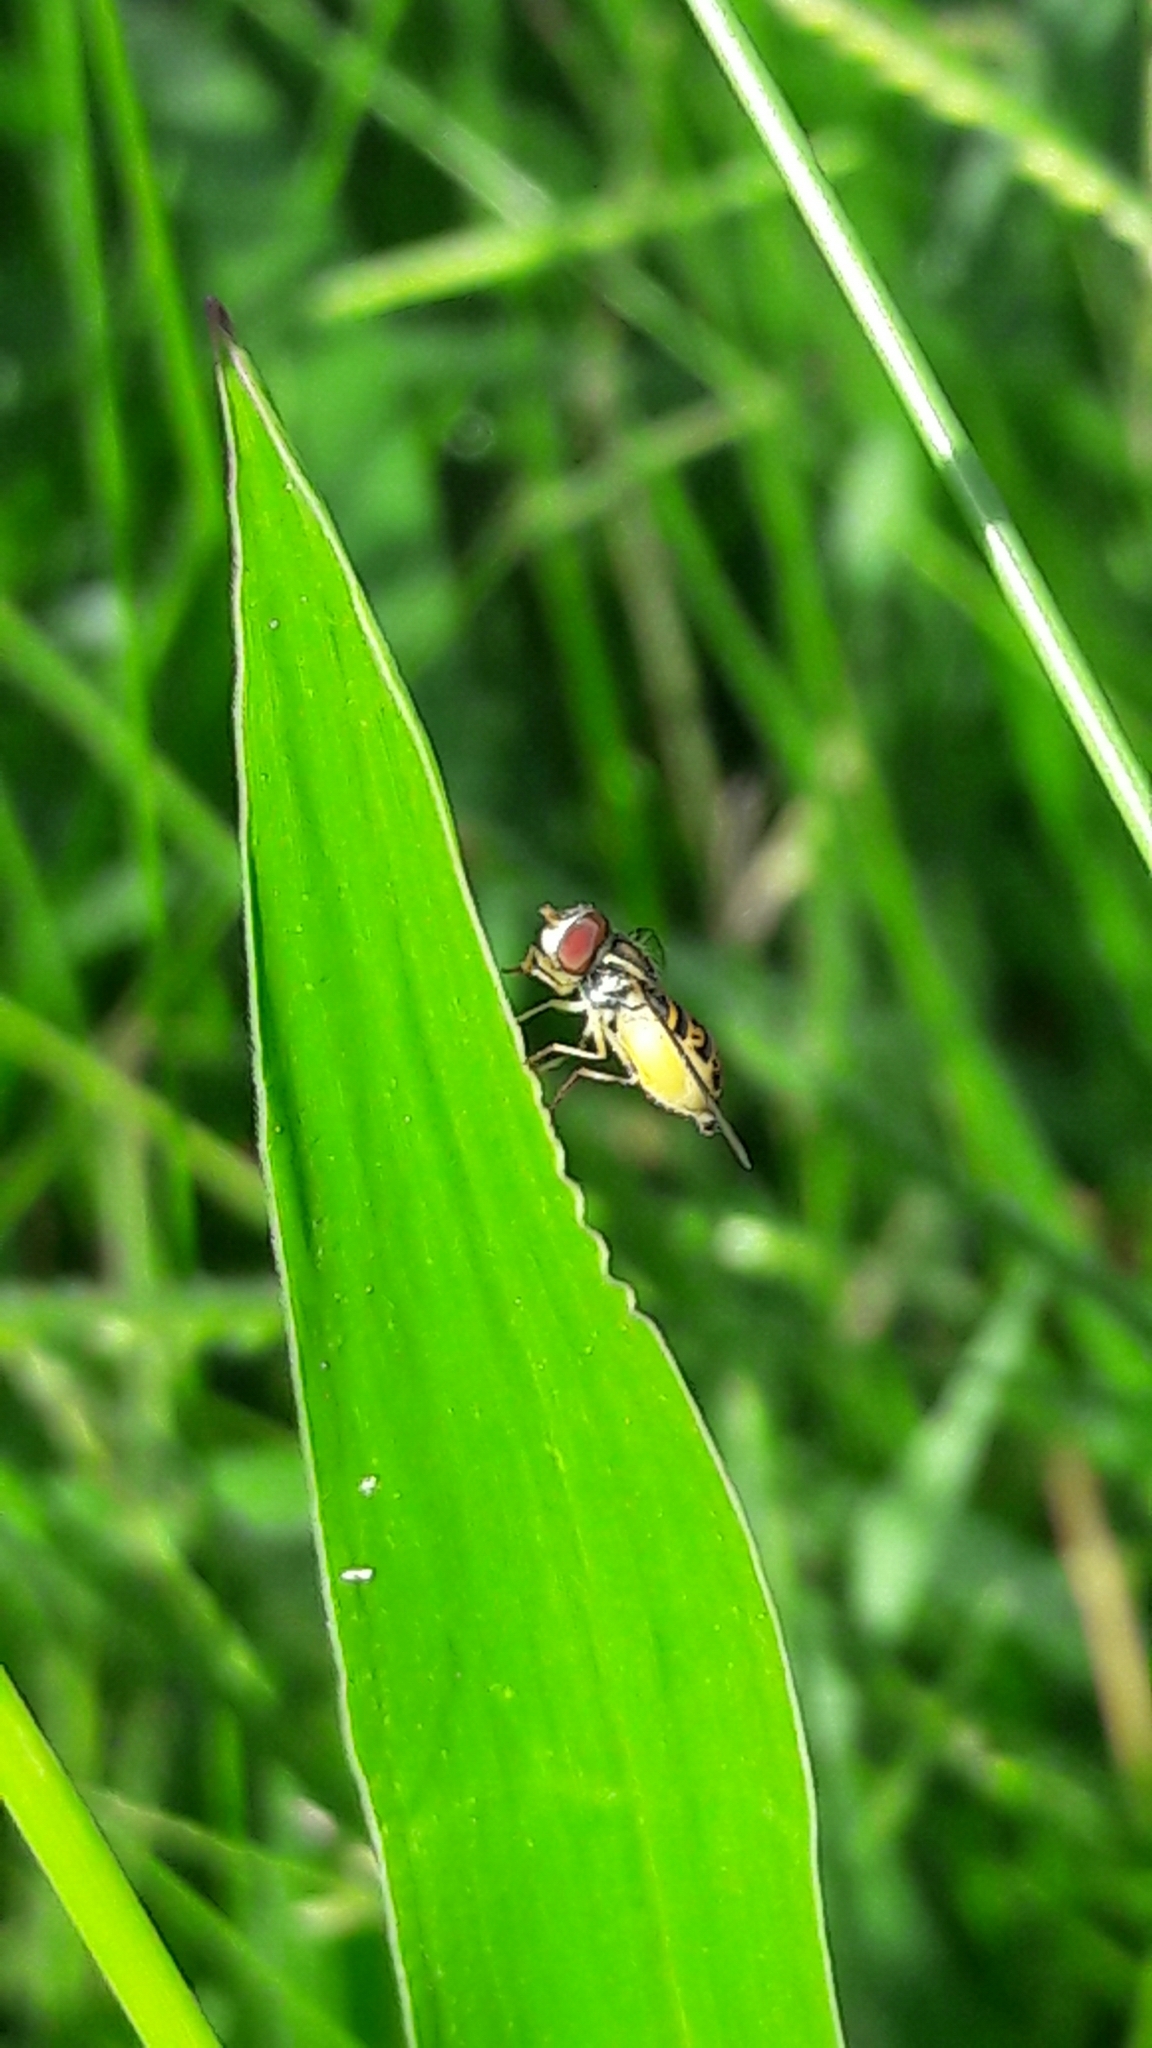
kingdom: Animalia
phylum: Arthropoda
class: Insecta
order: Diptera
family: Syrphidae
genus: Toxomerus
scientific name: Toxomerus pulchellus
